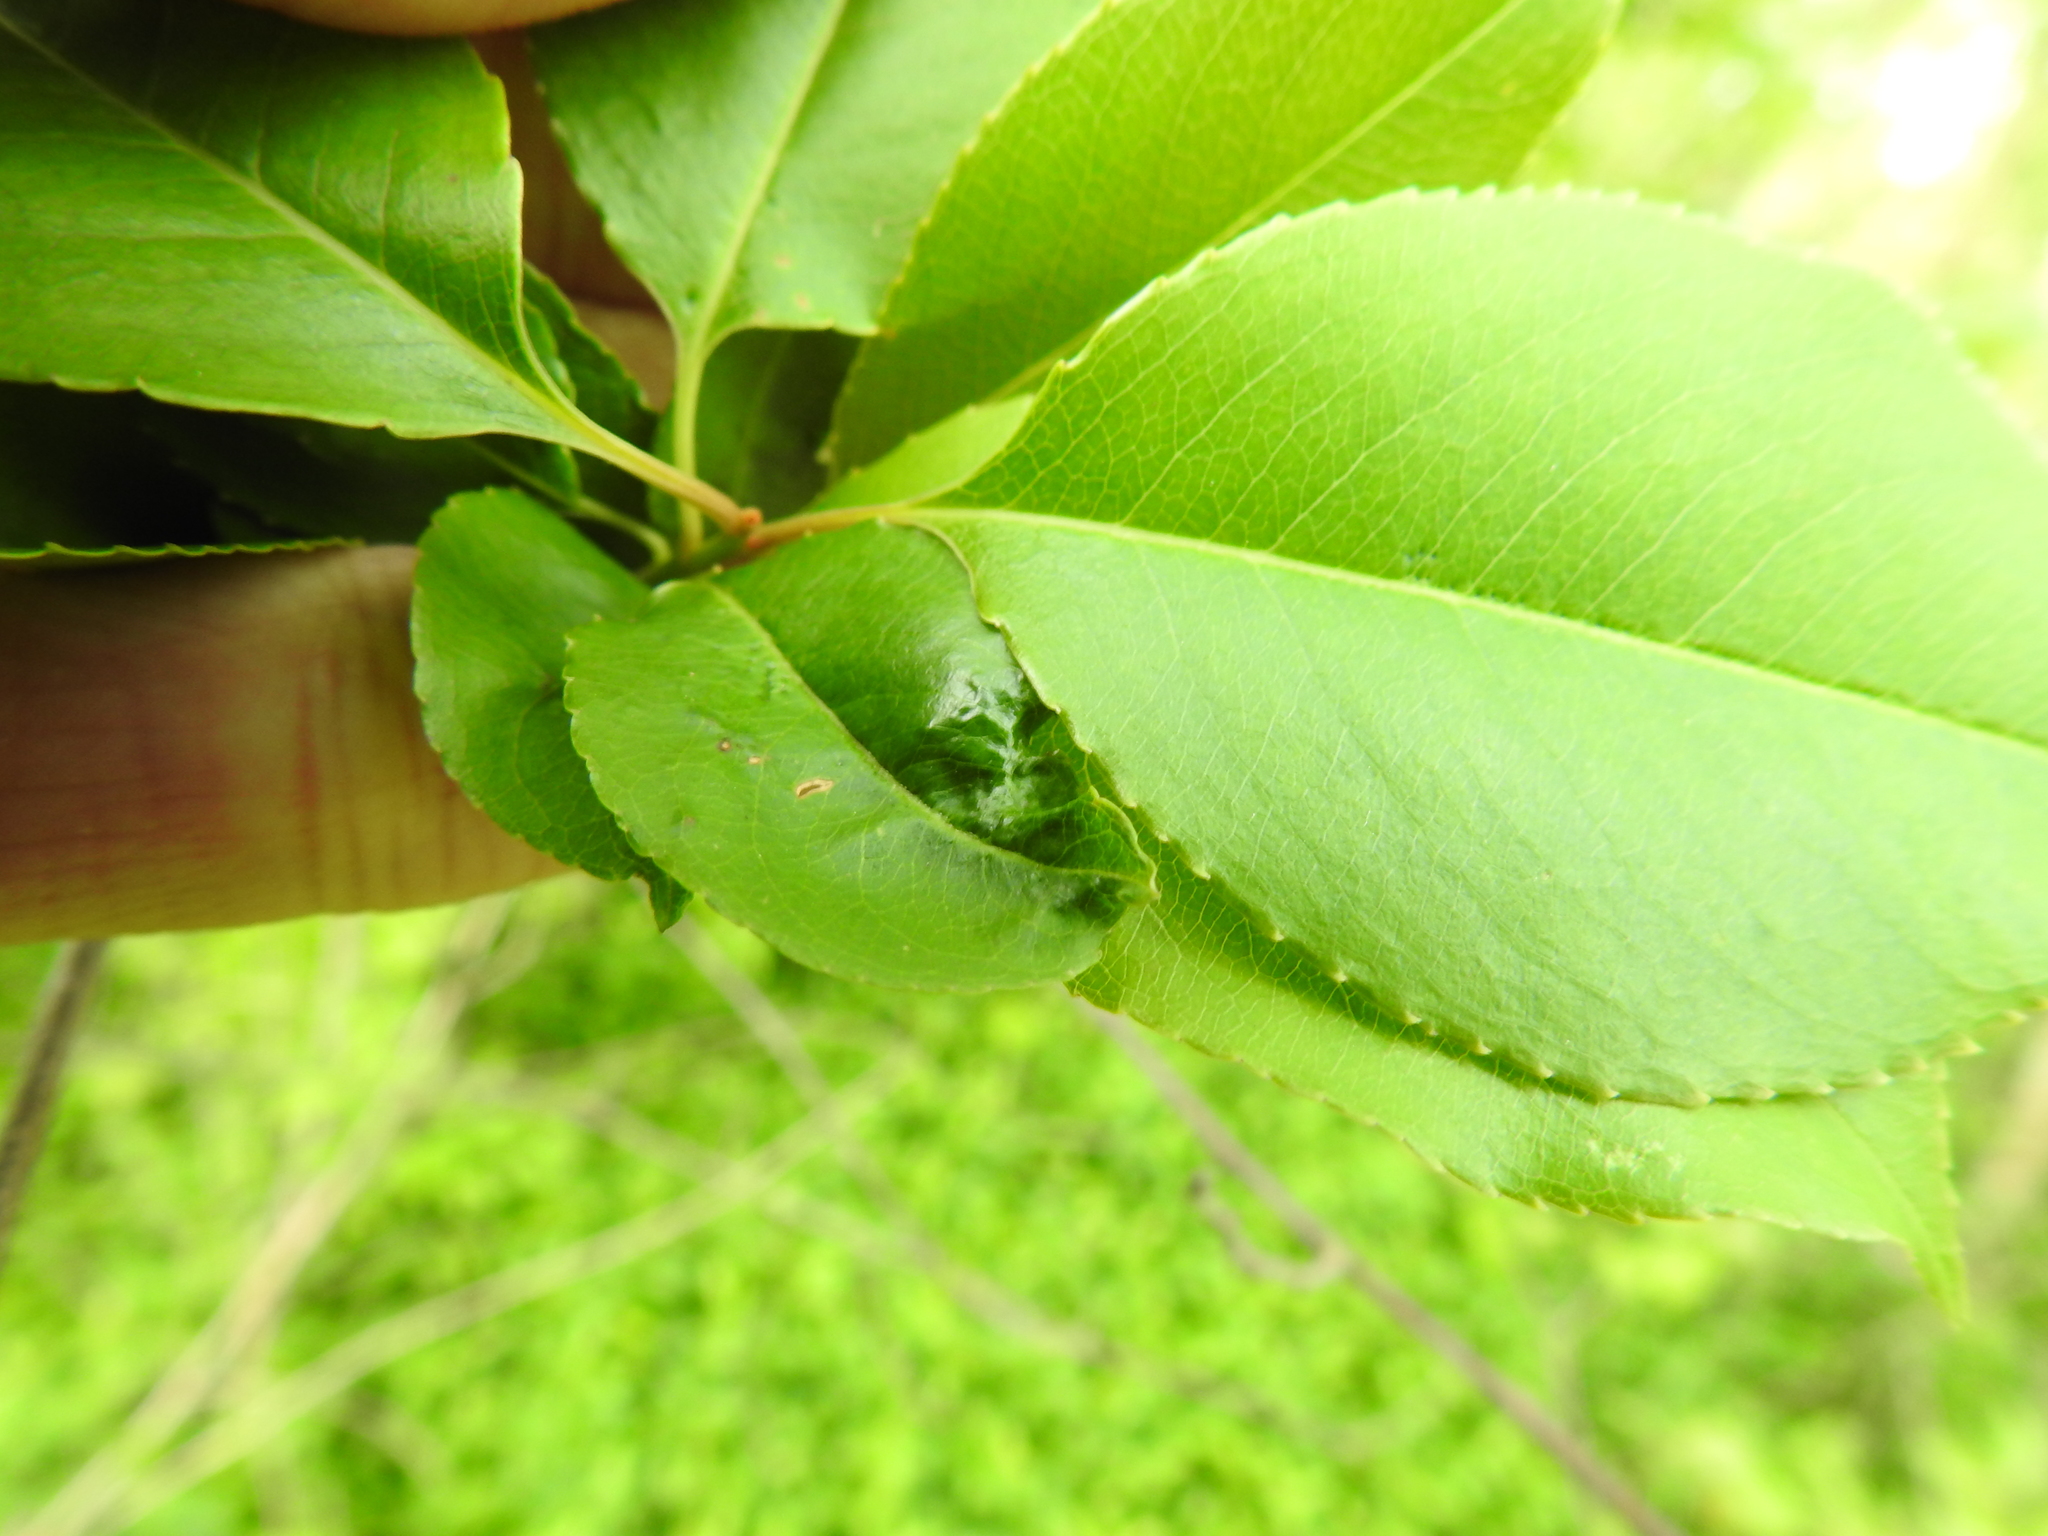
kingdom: Plantae
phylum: Tracheophyta
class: Magnoliopsida
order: Rosales
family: Rosaceae
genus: Prunus
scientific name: Prunus serotina
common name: Black cherry
